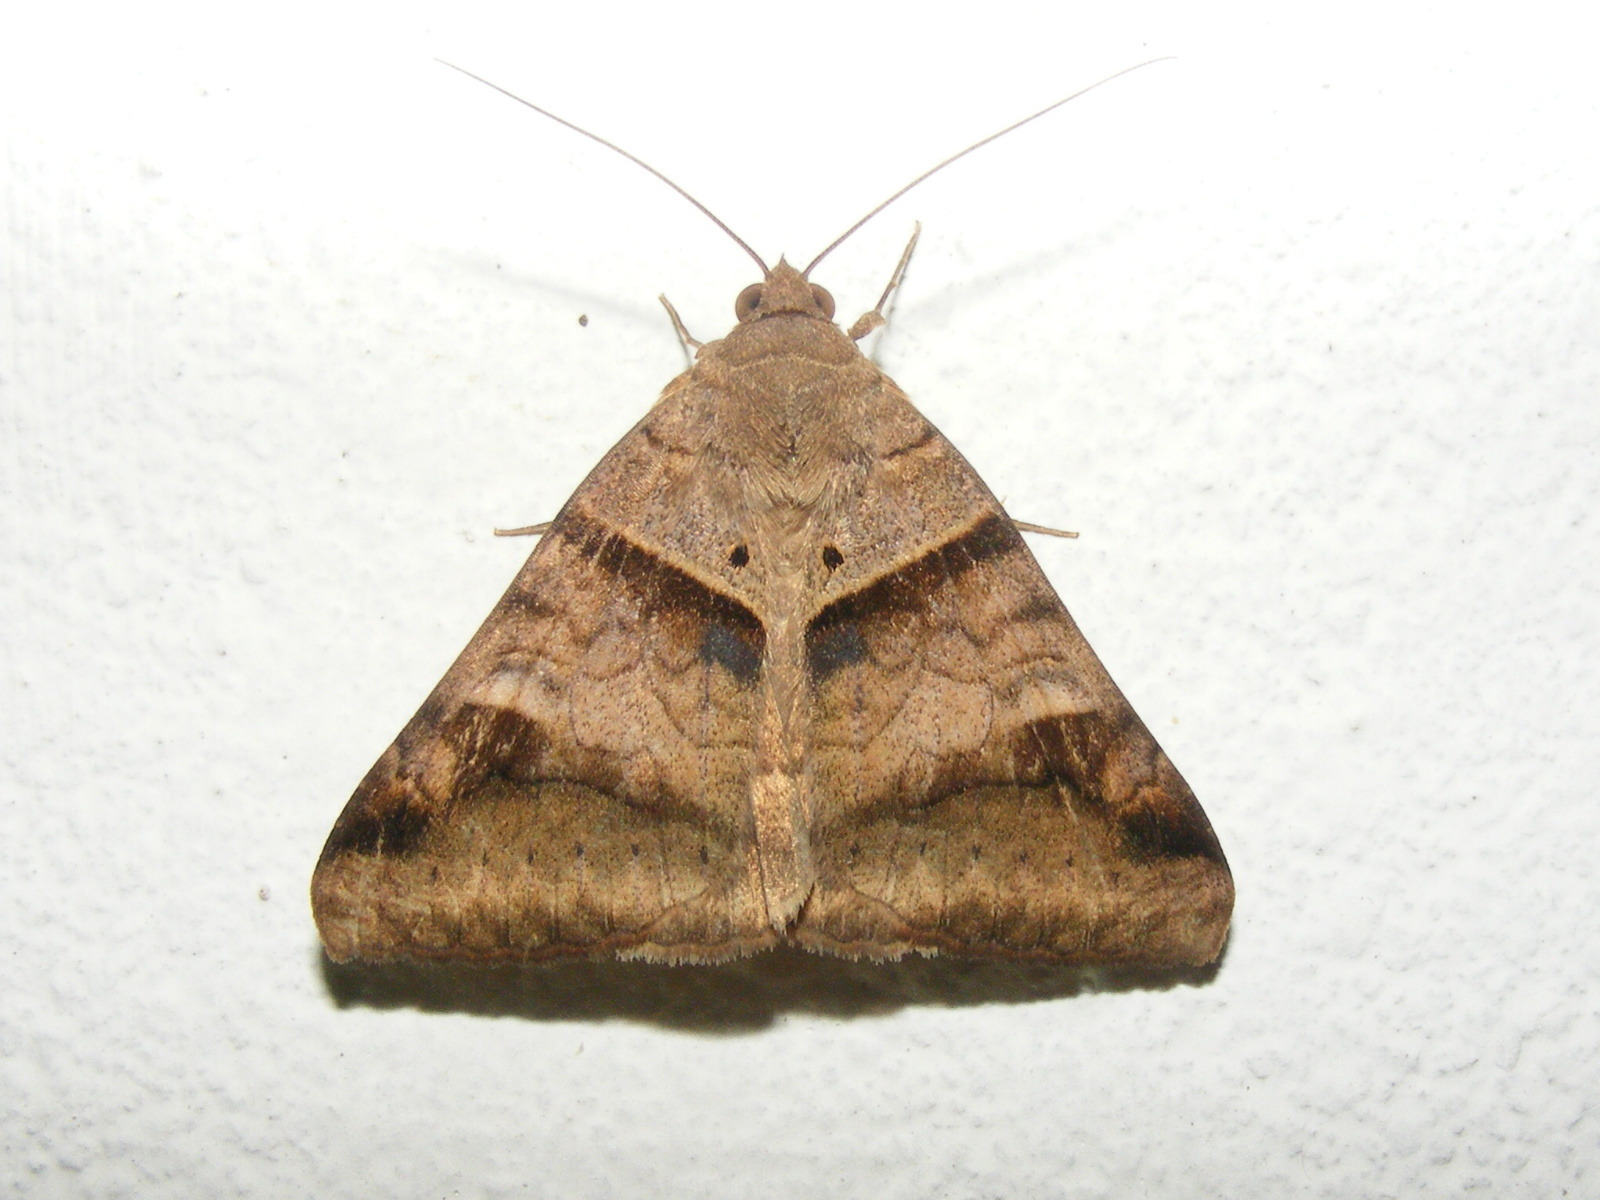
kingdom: Animalia
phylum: Arthropoda
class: Insecta
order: Lepidoptera
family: Erebidae
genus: Mocis
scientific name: Mocis undata
